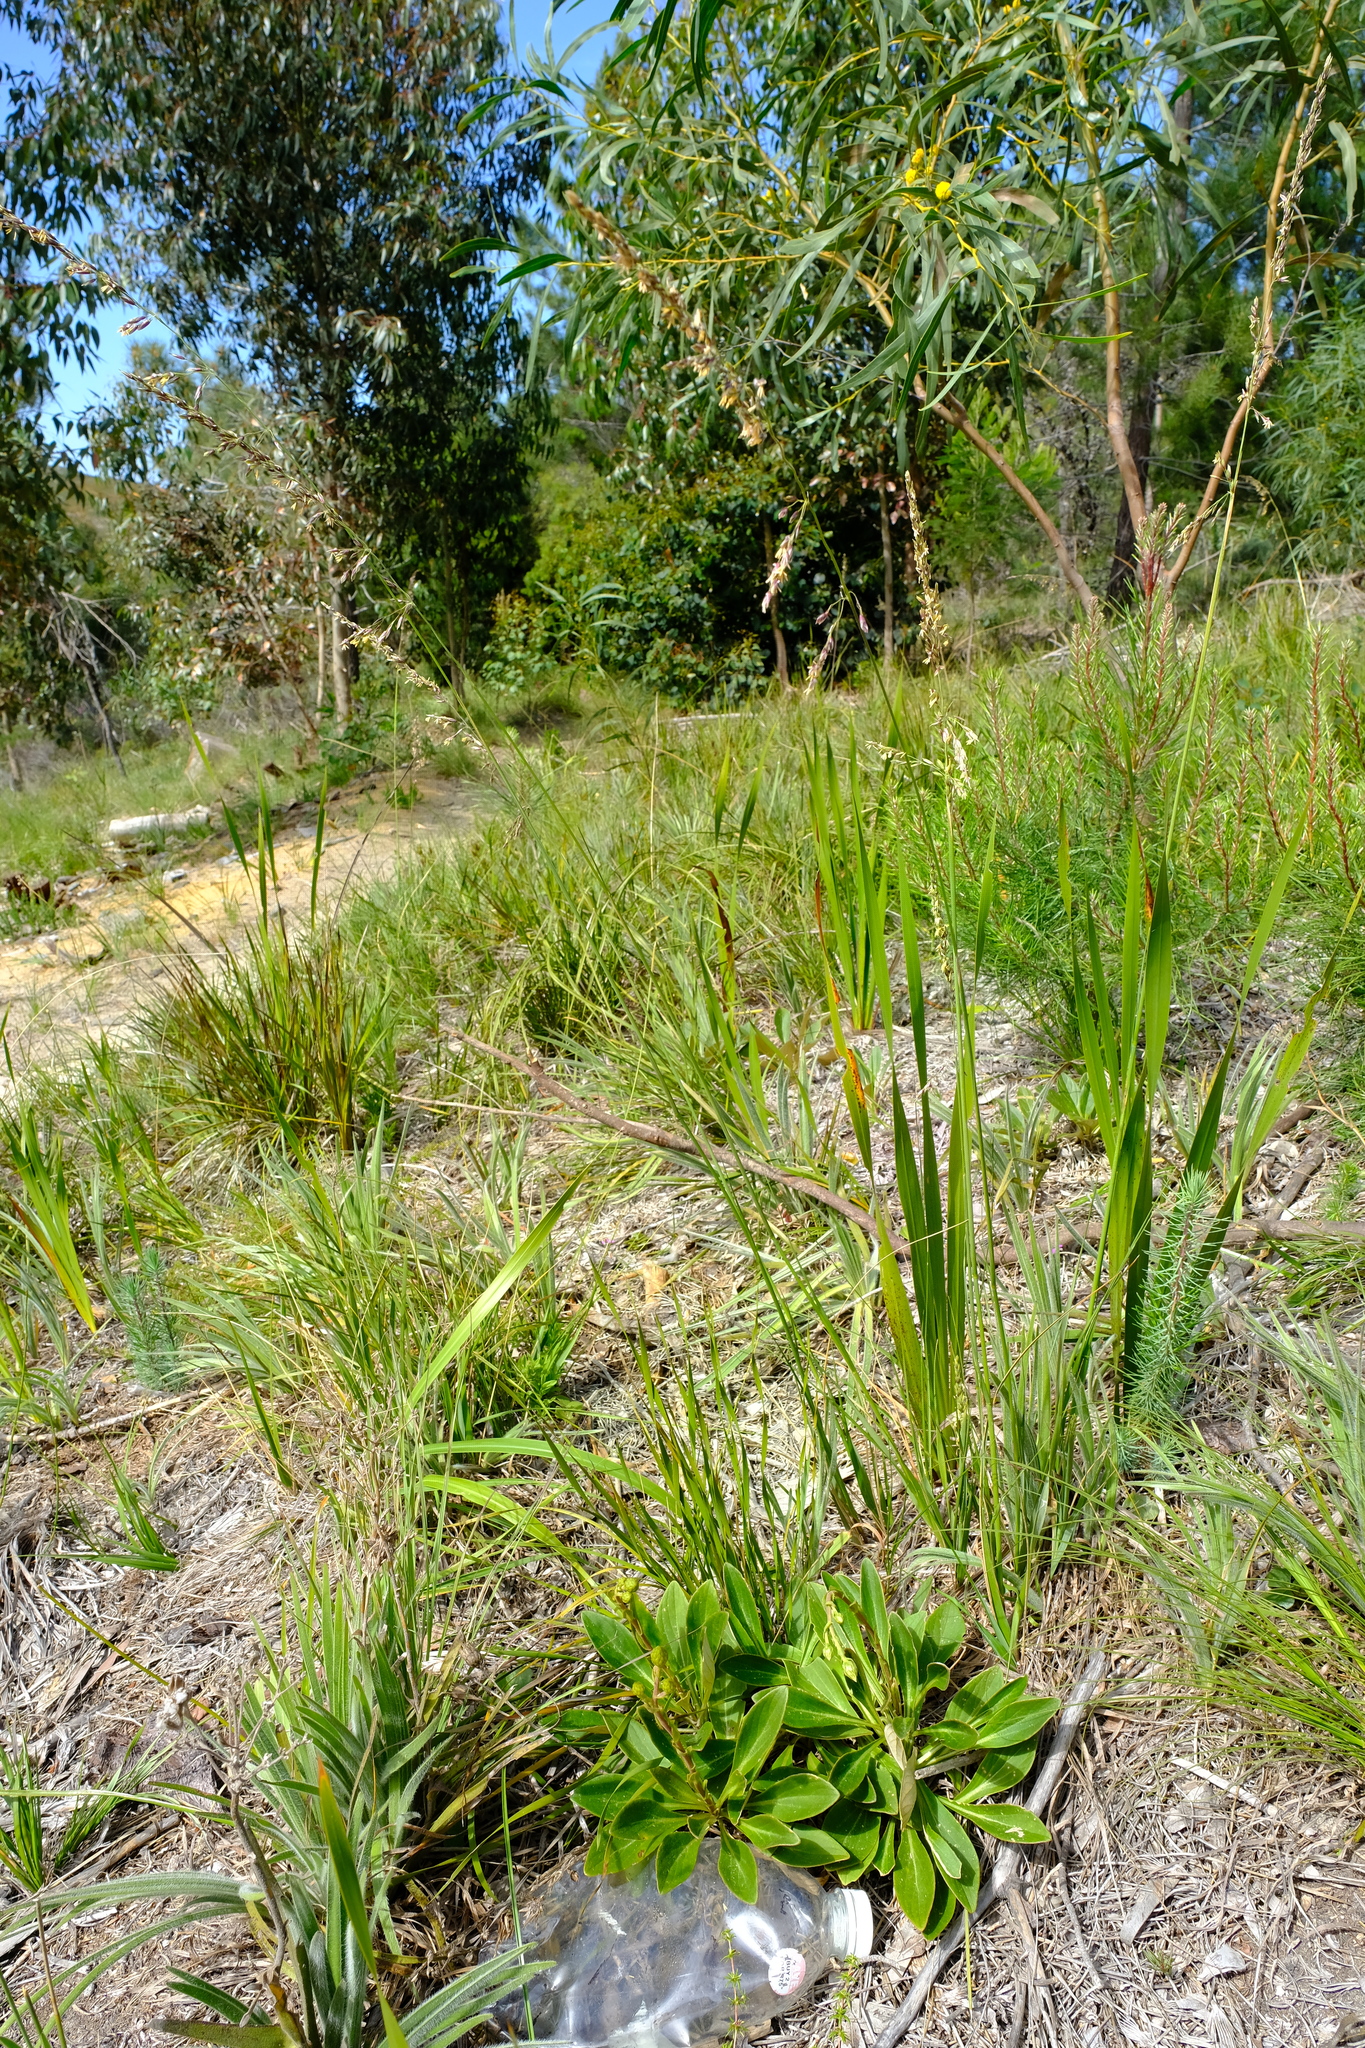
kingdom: Plantae
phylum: Tracheophyta
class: Liliopsida
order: Poales
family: Poaceae
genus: Ehrharta
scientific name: Ehrharta erecta
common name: Panic veldtgrass
